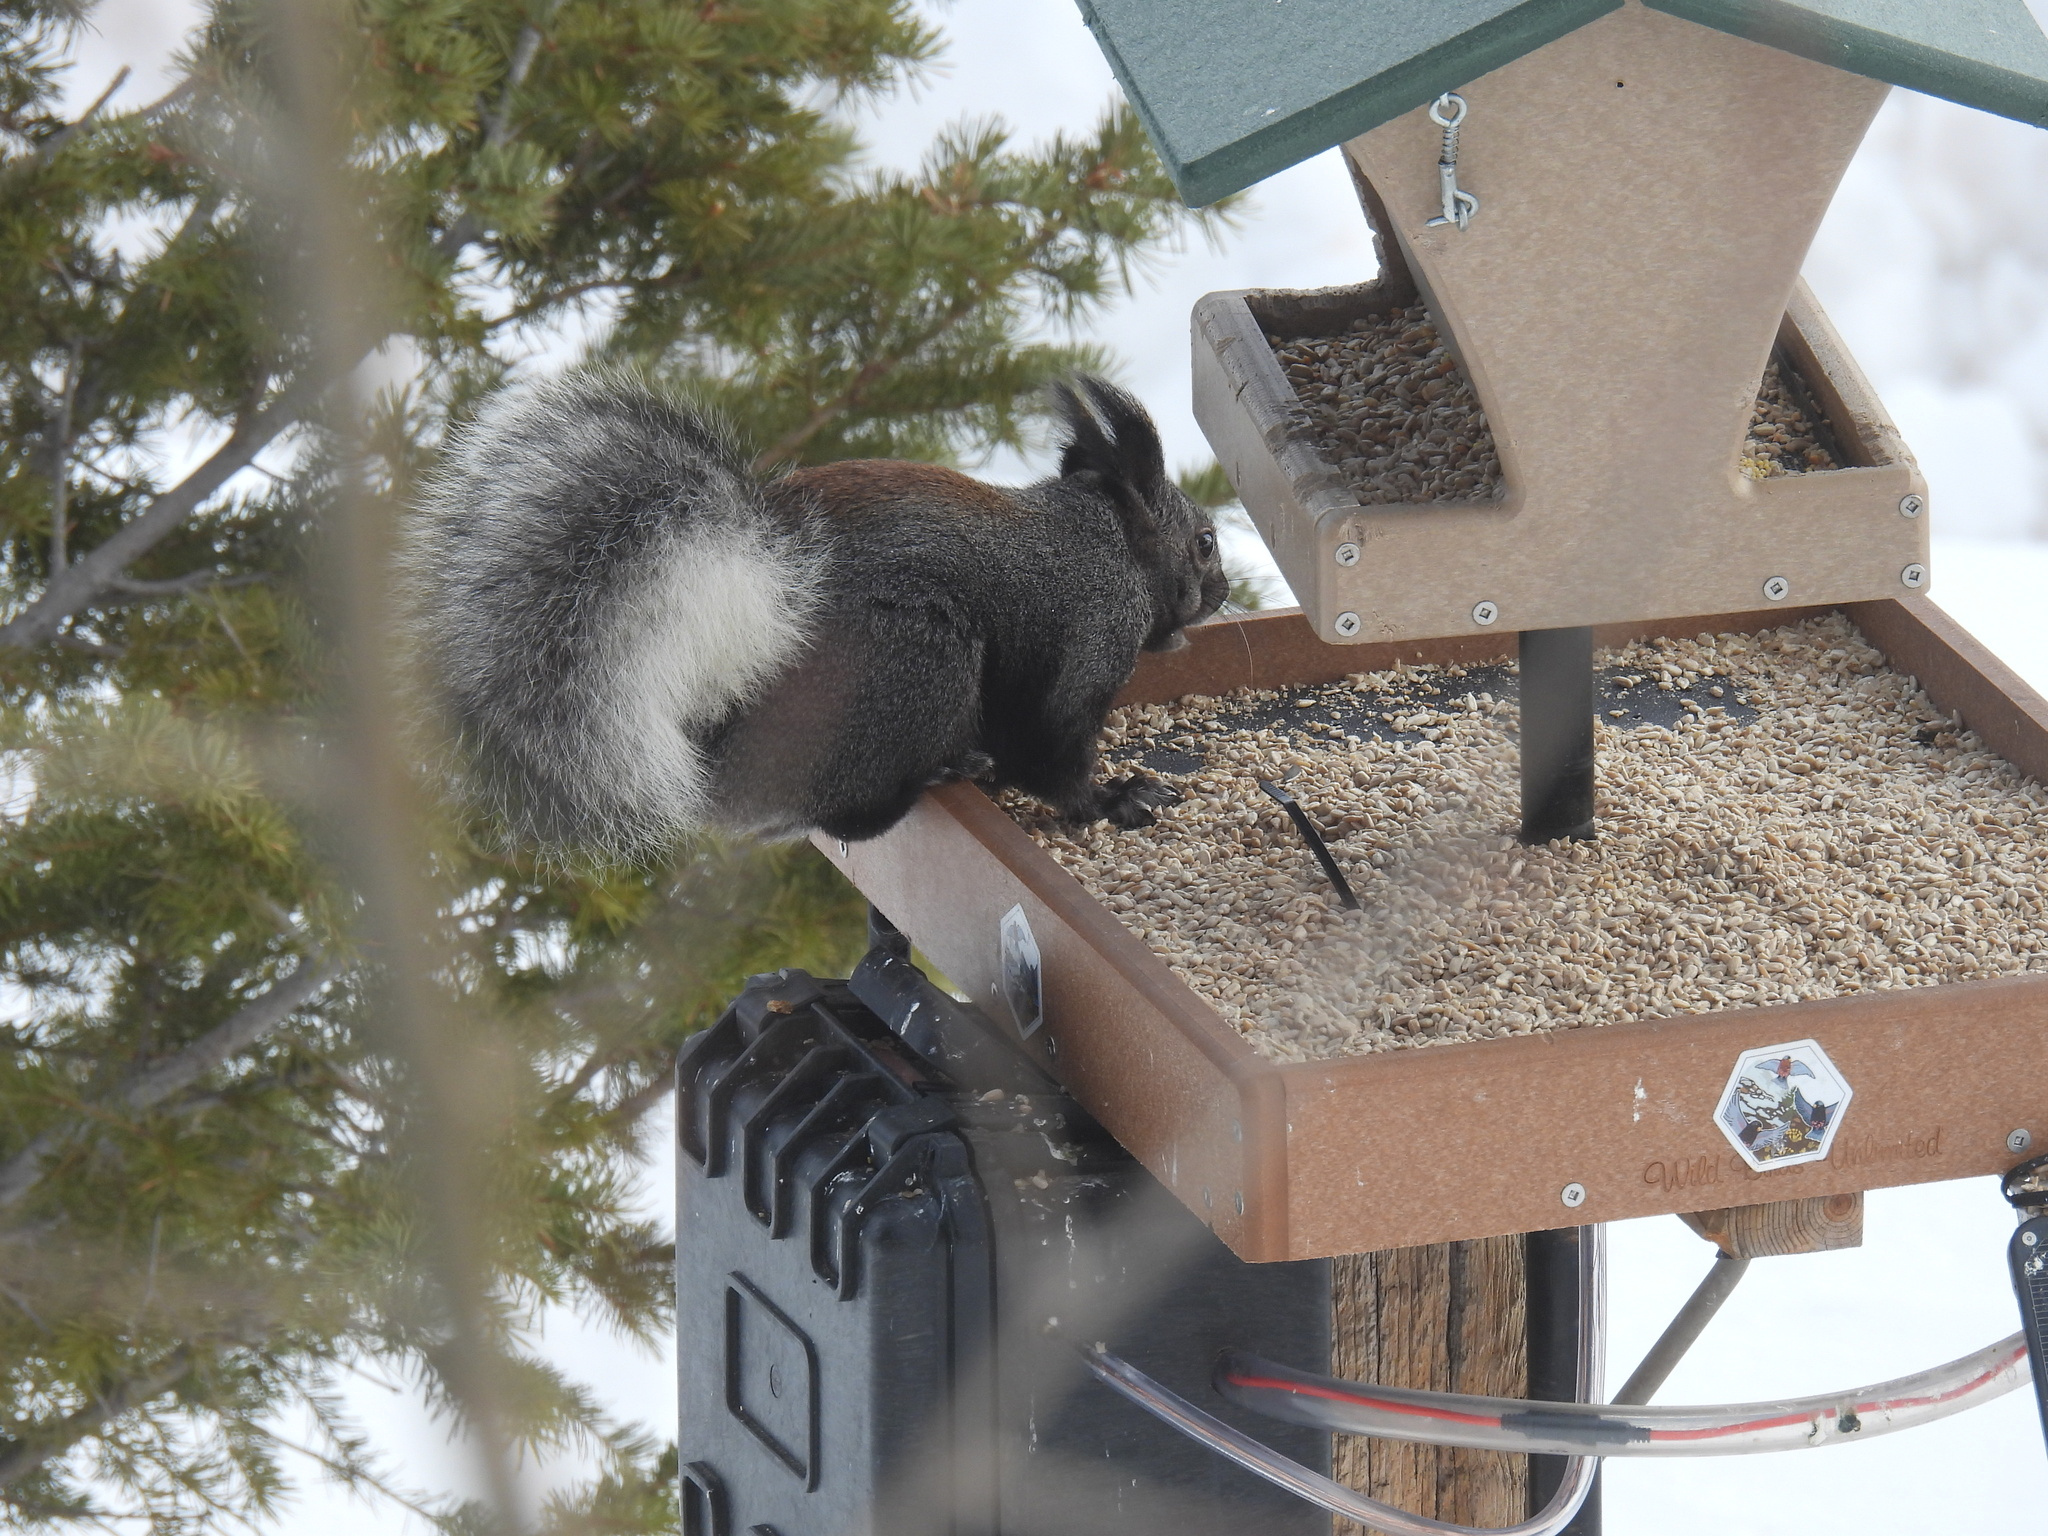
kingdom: Animalia
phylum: Chordata
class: Mammalia
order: Rodentia
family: Sciuridae
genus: Sciurus
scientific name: Sciurus aberti
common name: Abert's squirrel
